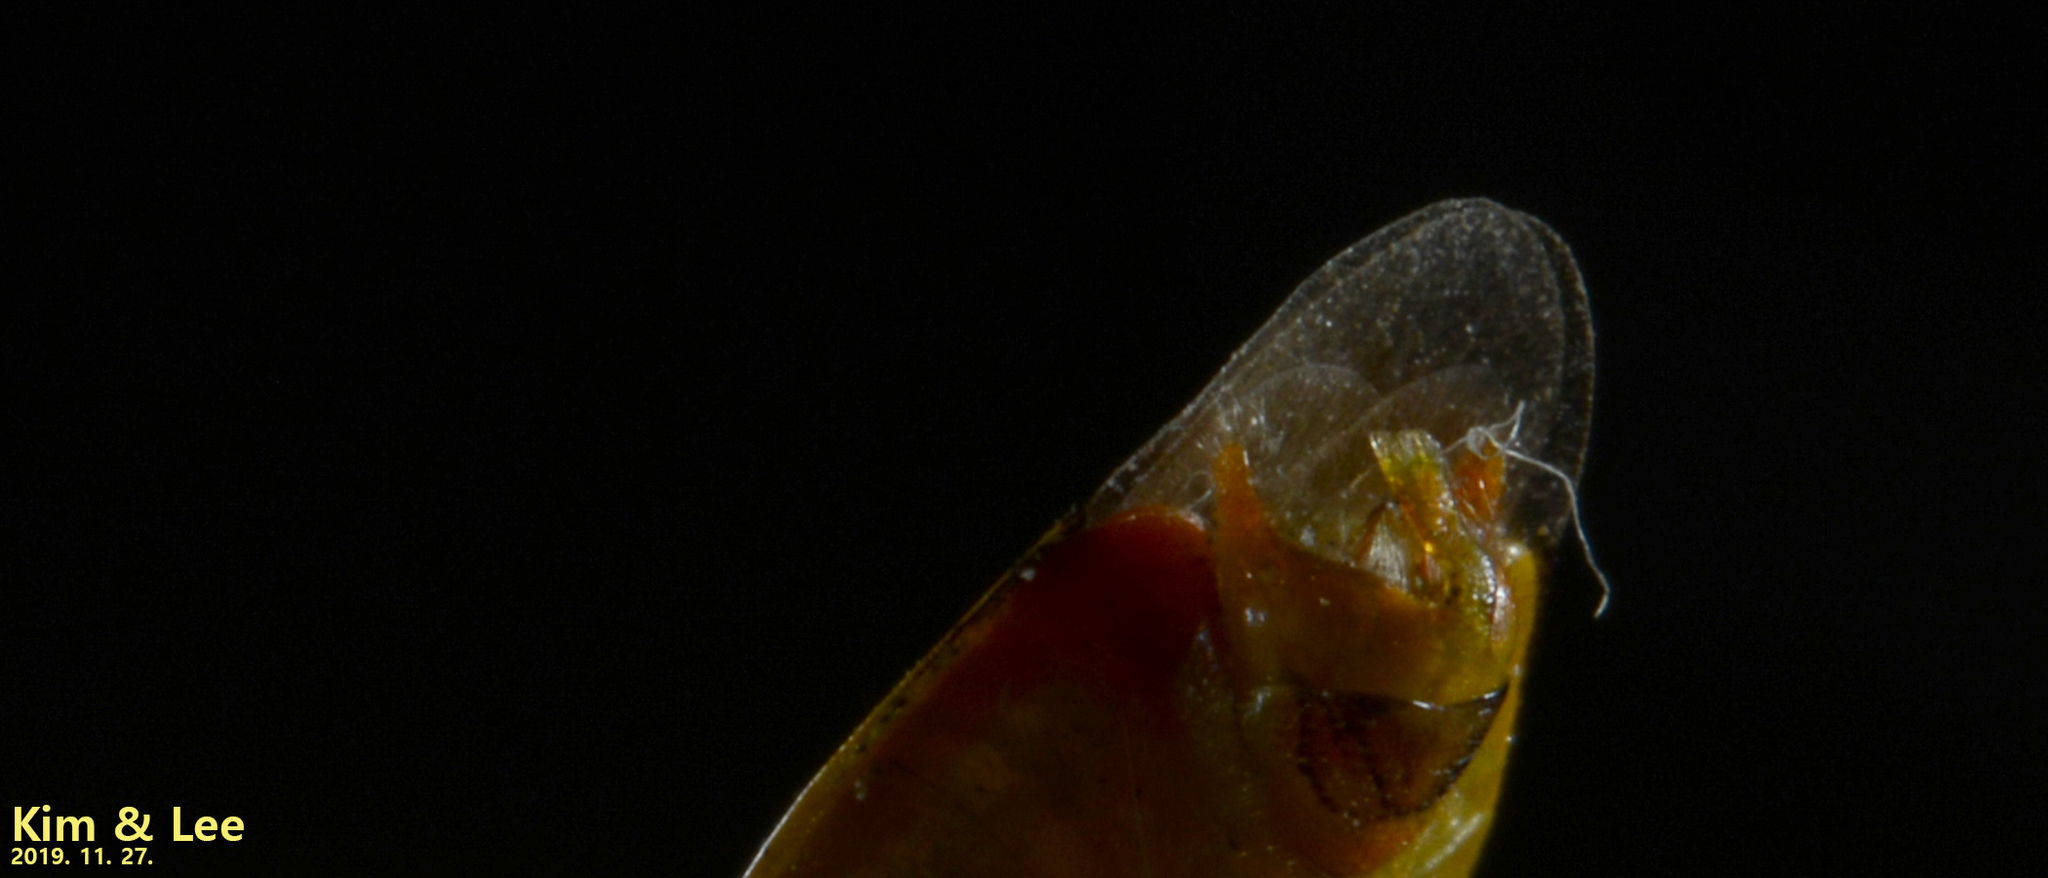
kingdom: Animalia
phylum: Arthropoda
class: Insecta
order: Hemiptera
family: Urostylididae
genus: Urostylis
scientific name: Urostylis hubeiensis
